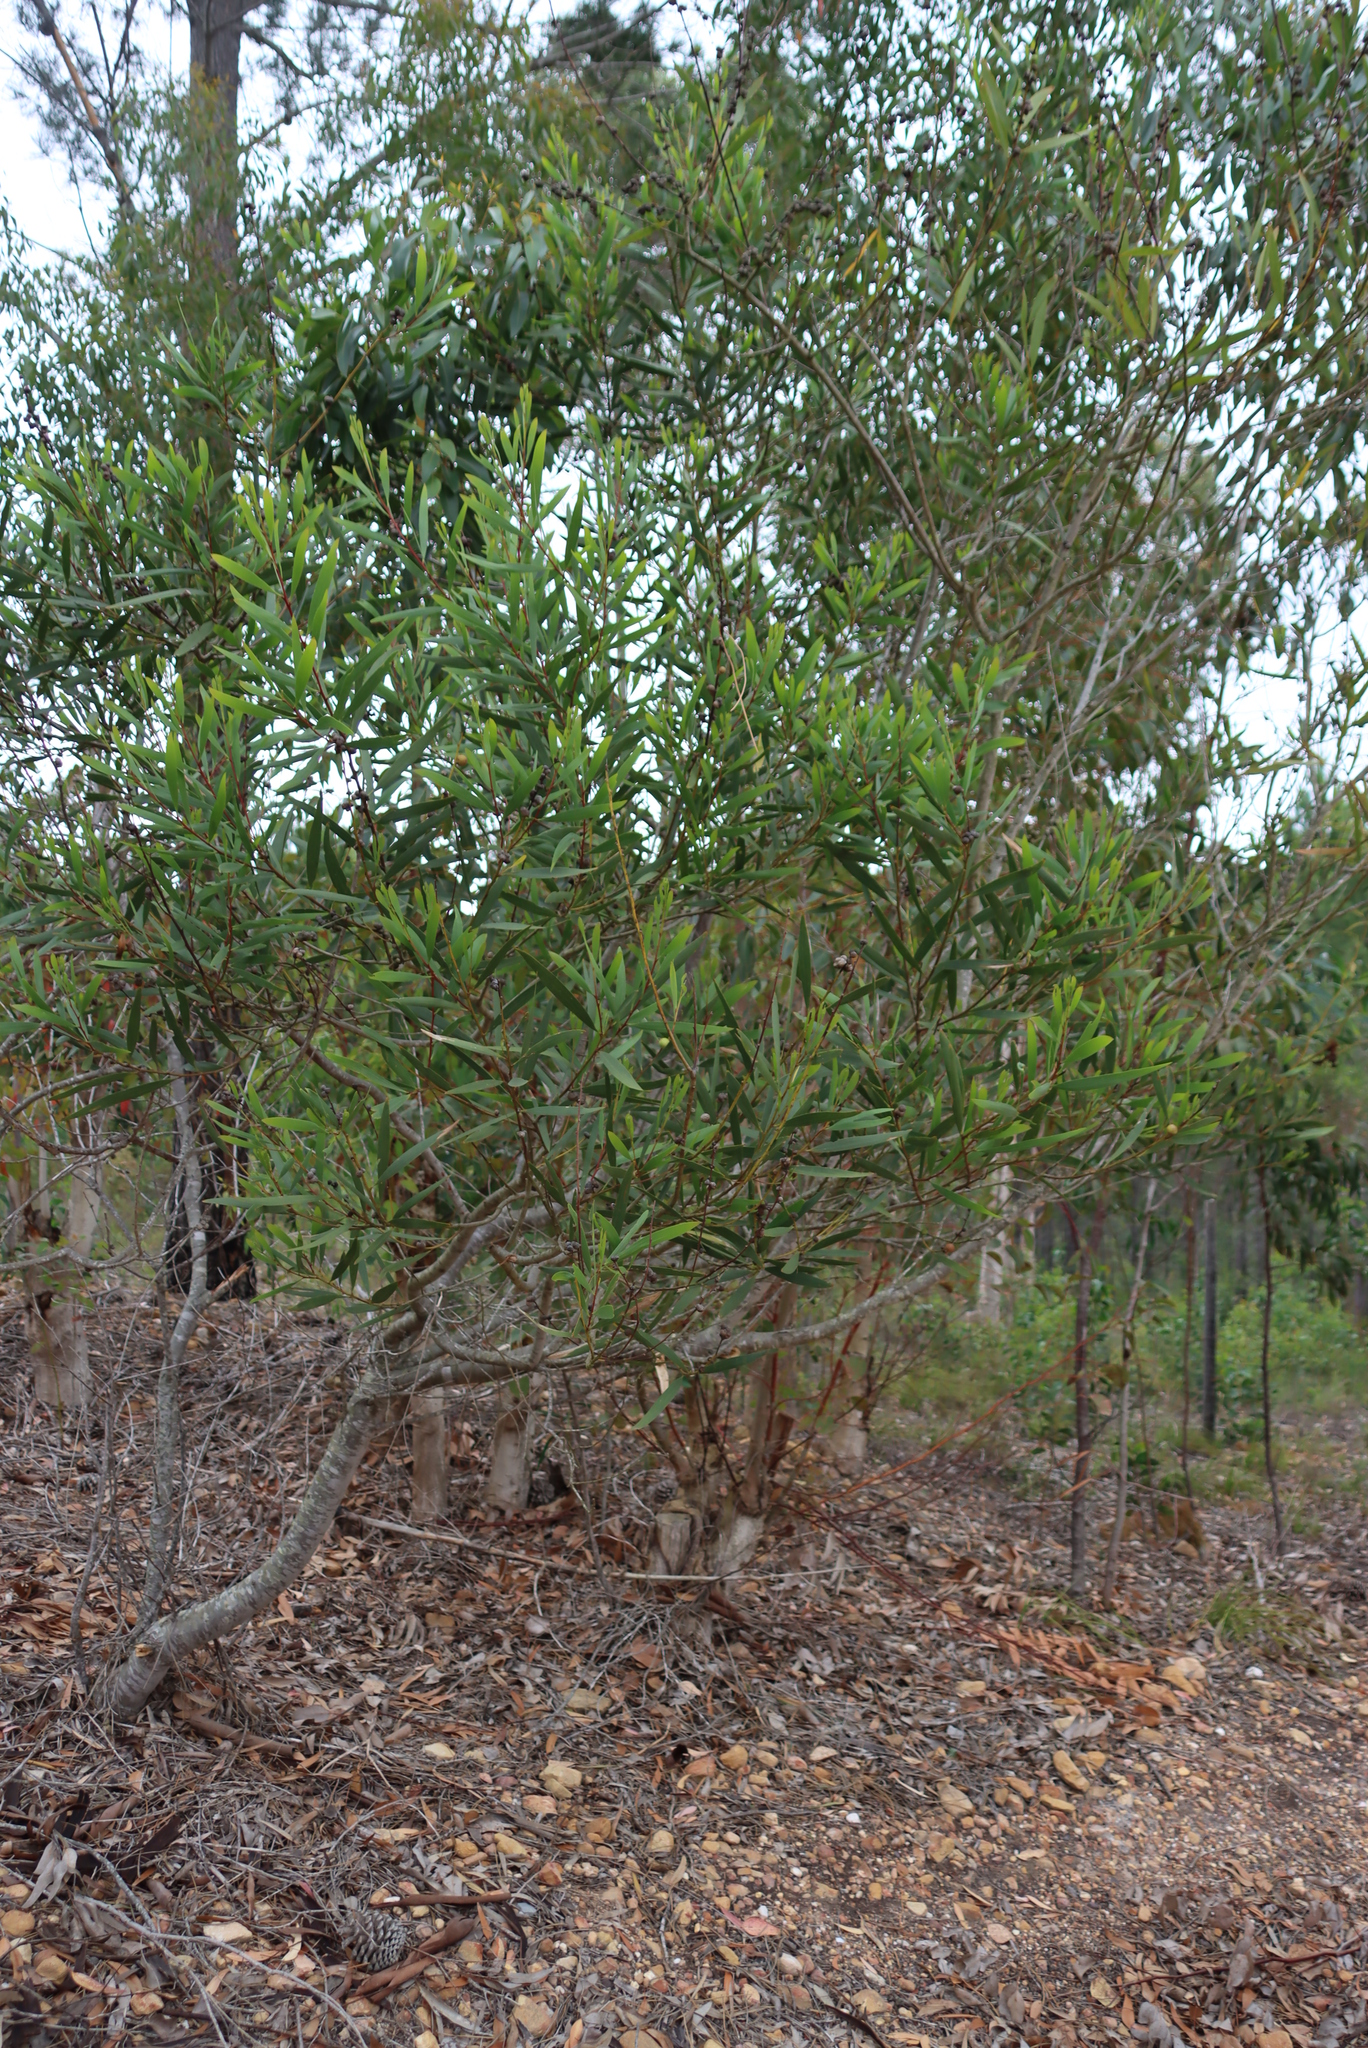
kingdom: Plantae
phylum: Tracheophyta
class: Magnoliopsida
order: Fabales
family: Fabaceae
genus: Acacia
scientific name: Acacia longifolia
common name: Sydney golden wattle
